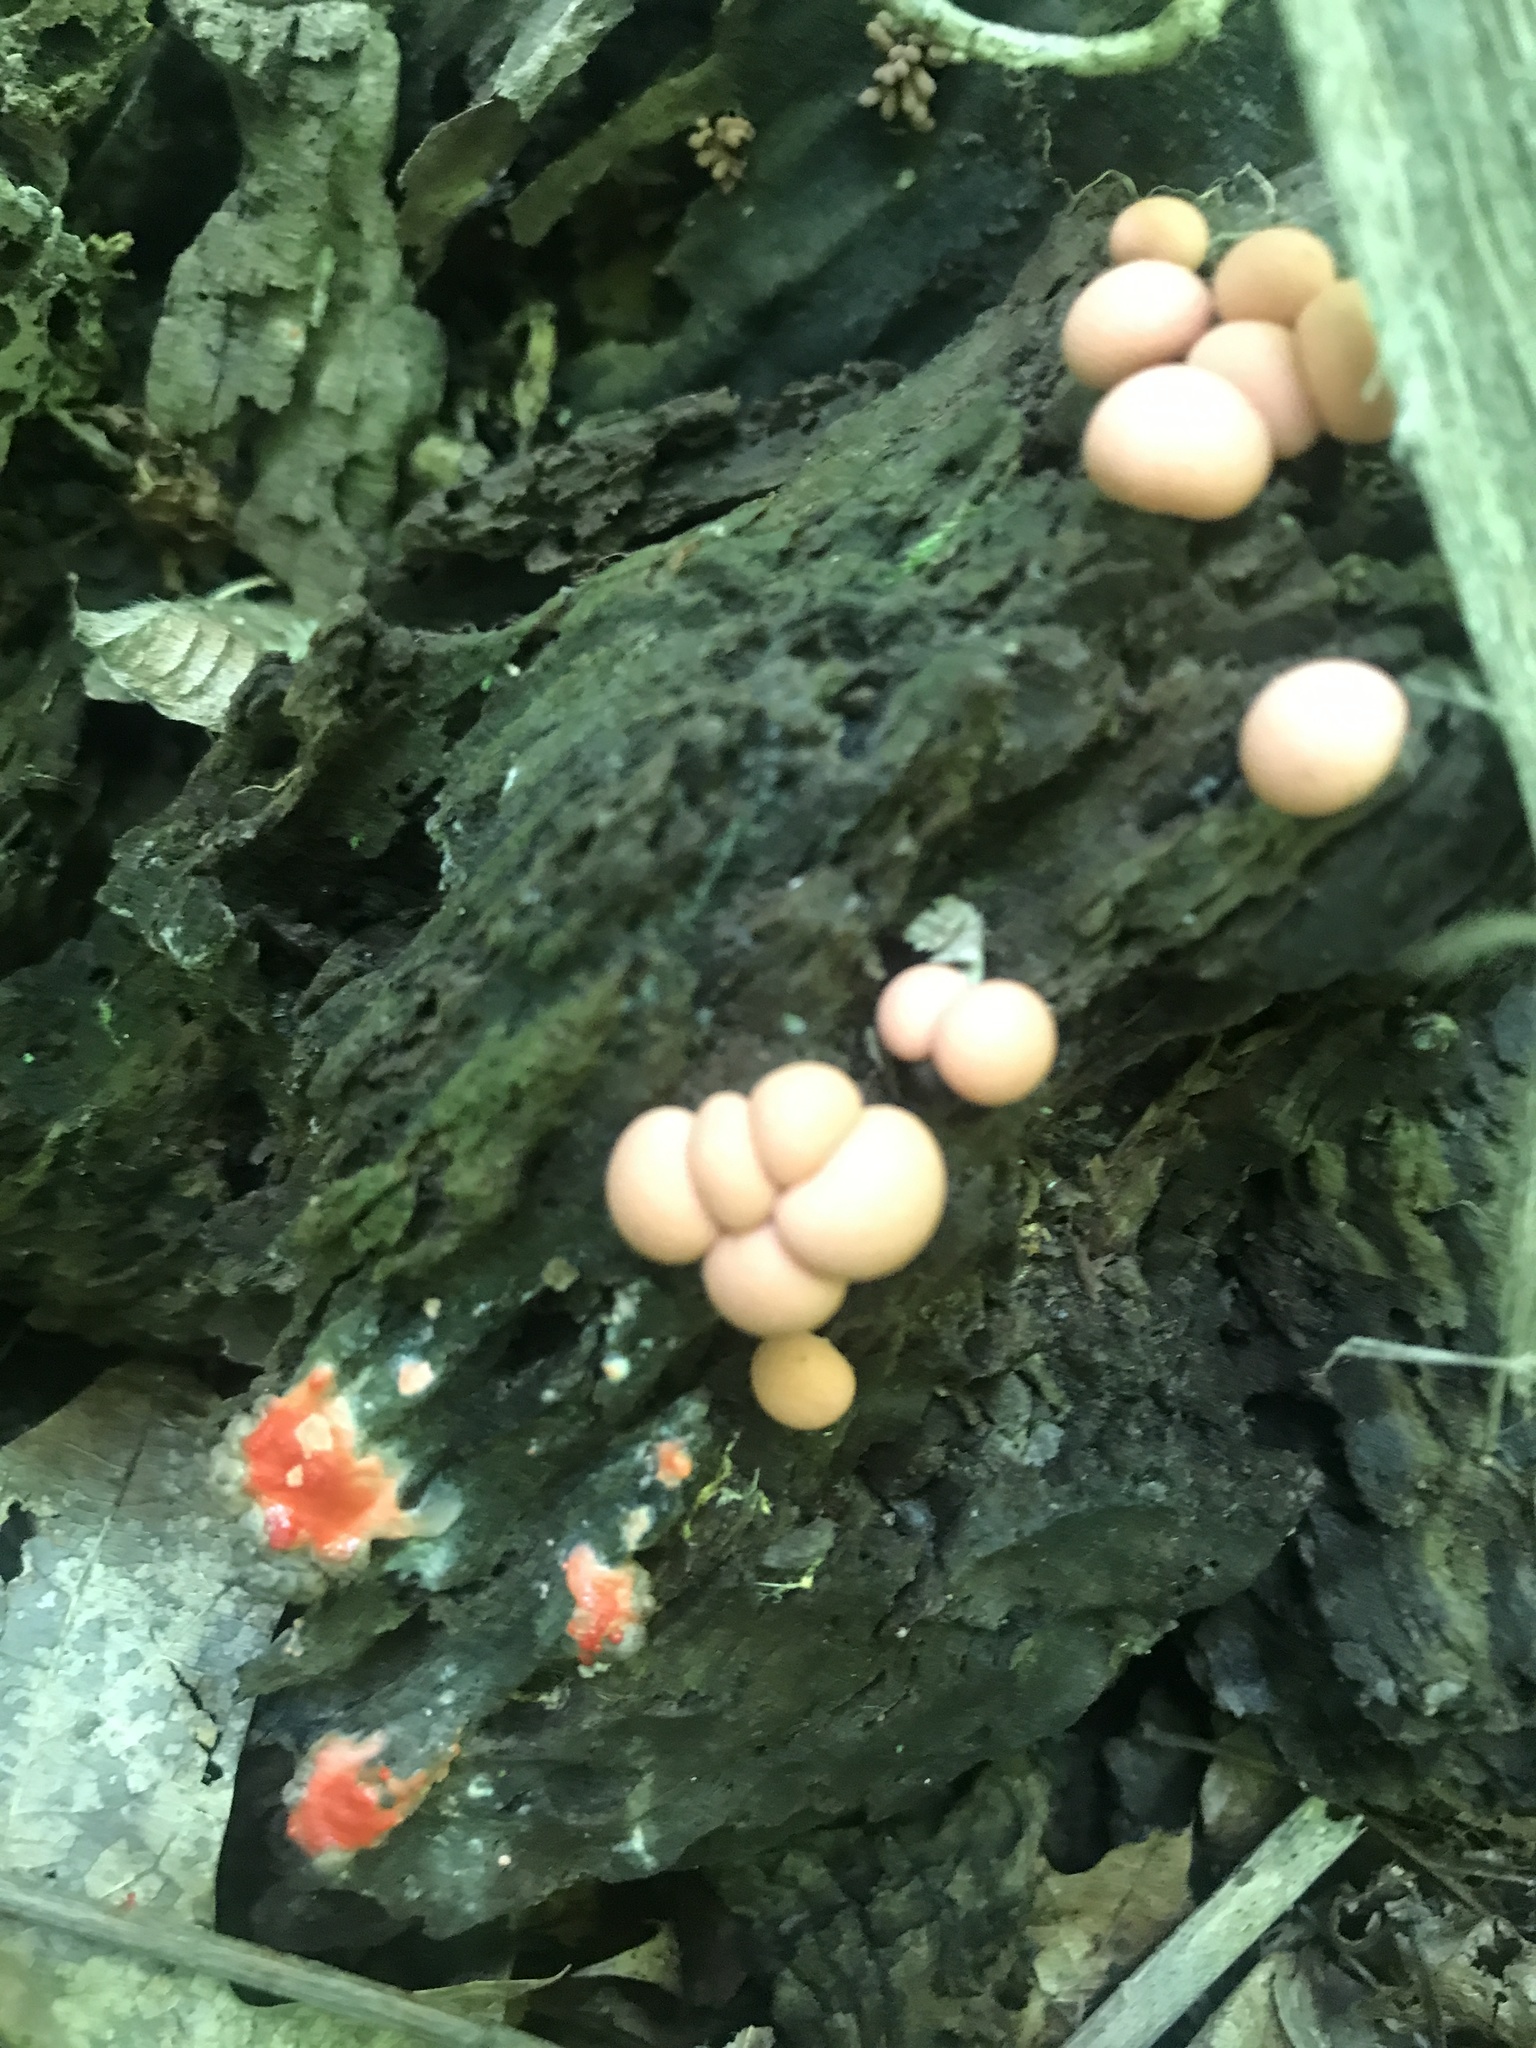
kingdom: Protozoa
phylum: Mycetozoa
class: Myxomycetes
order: Cribrariales
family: Tubiferaceae
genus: Lycogala
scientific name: Lycogala epidendrum
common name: Wolf's milk
